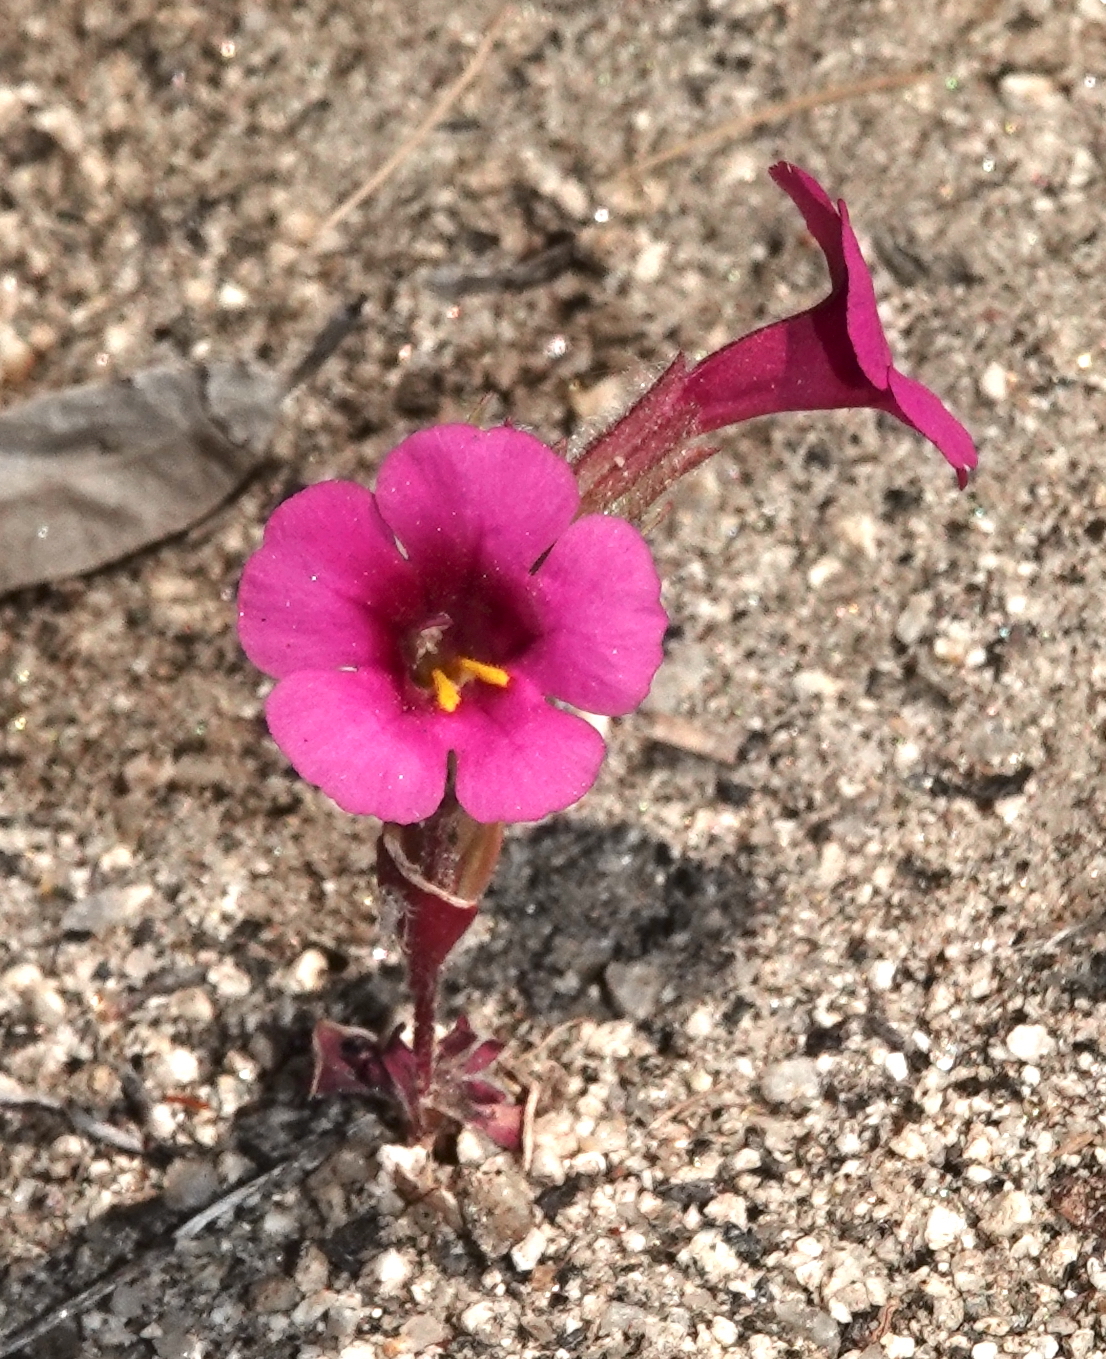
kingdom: Plantae
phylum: Tracheophyta
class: Magnoliopsida
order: Lamiales
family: Phrymaceae
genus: Diplacus
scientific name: Diplacus fremontii
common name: Fremont's monkey-flower
